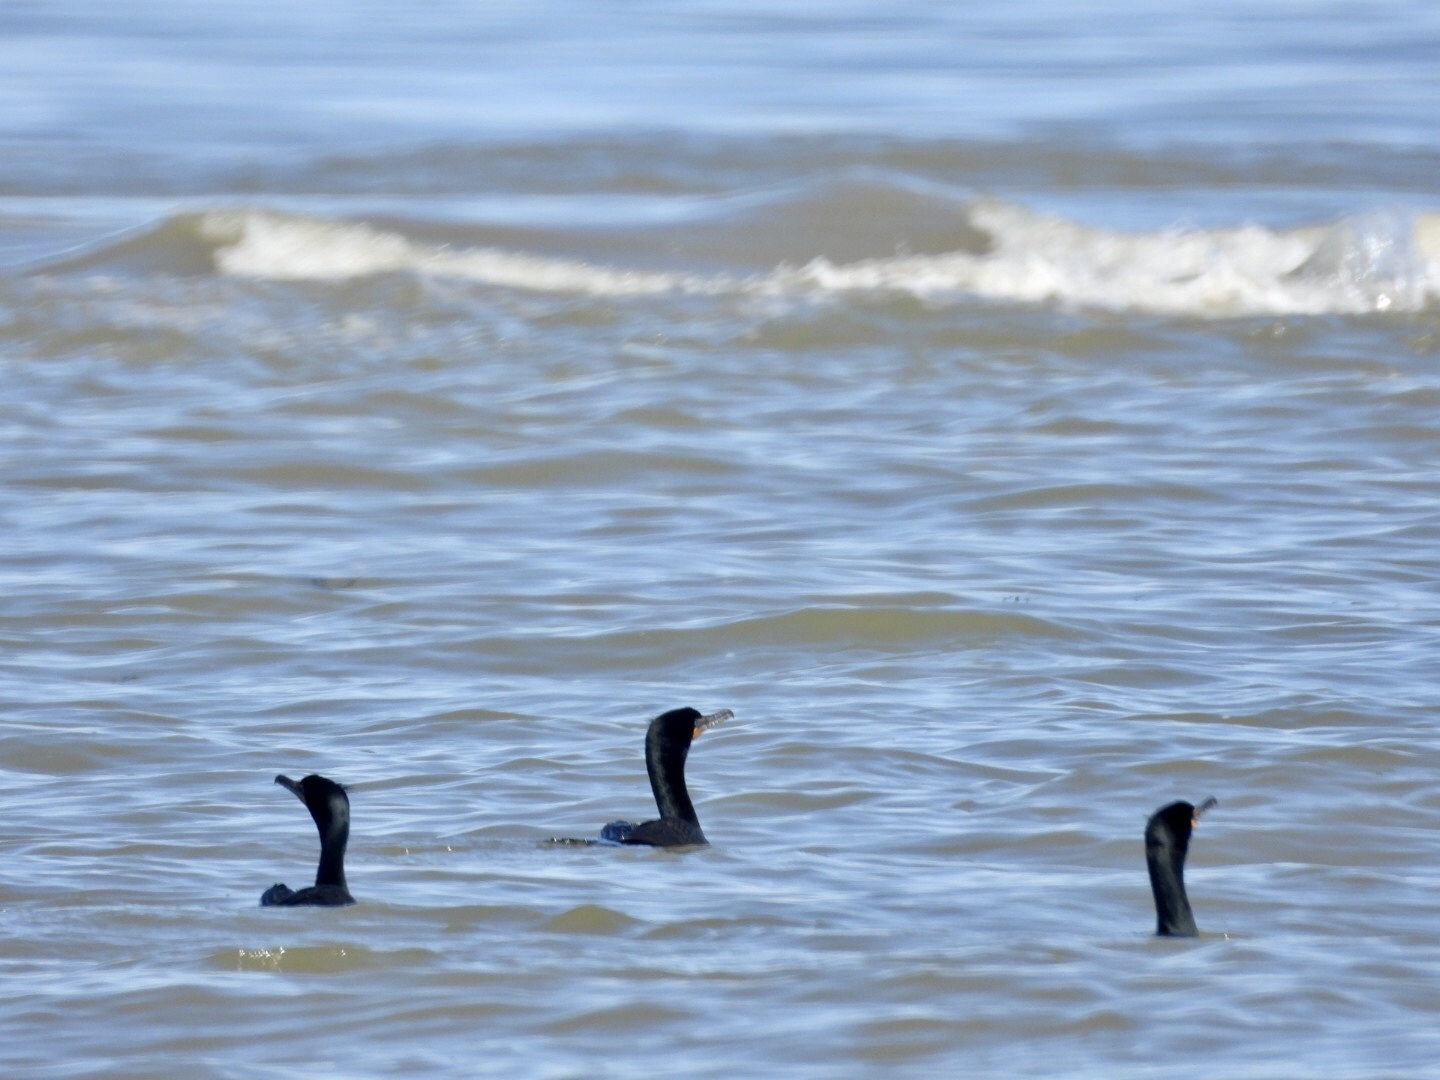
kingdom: Animalia
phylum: Chordata
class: Aves
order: Suliformes
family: Phalacrocoracidae
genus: Phalacrocorax
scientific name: Phalacrocorax auritus
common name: Double-crested cormorant
